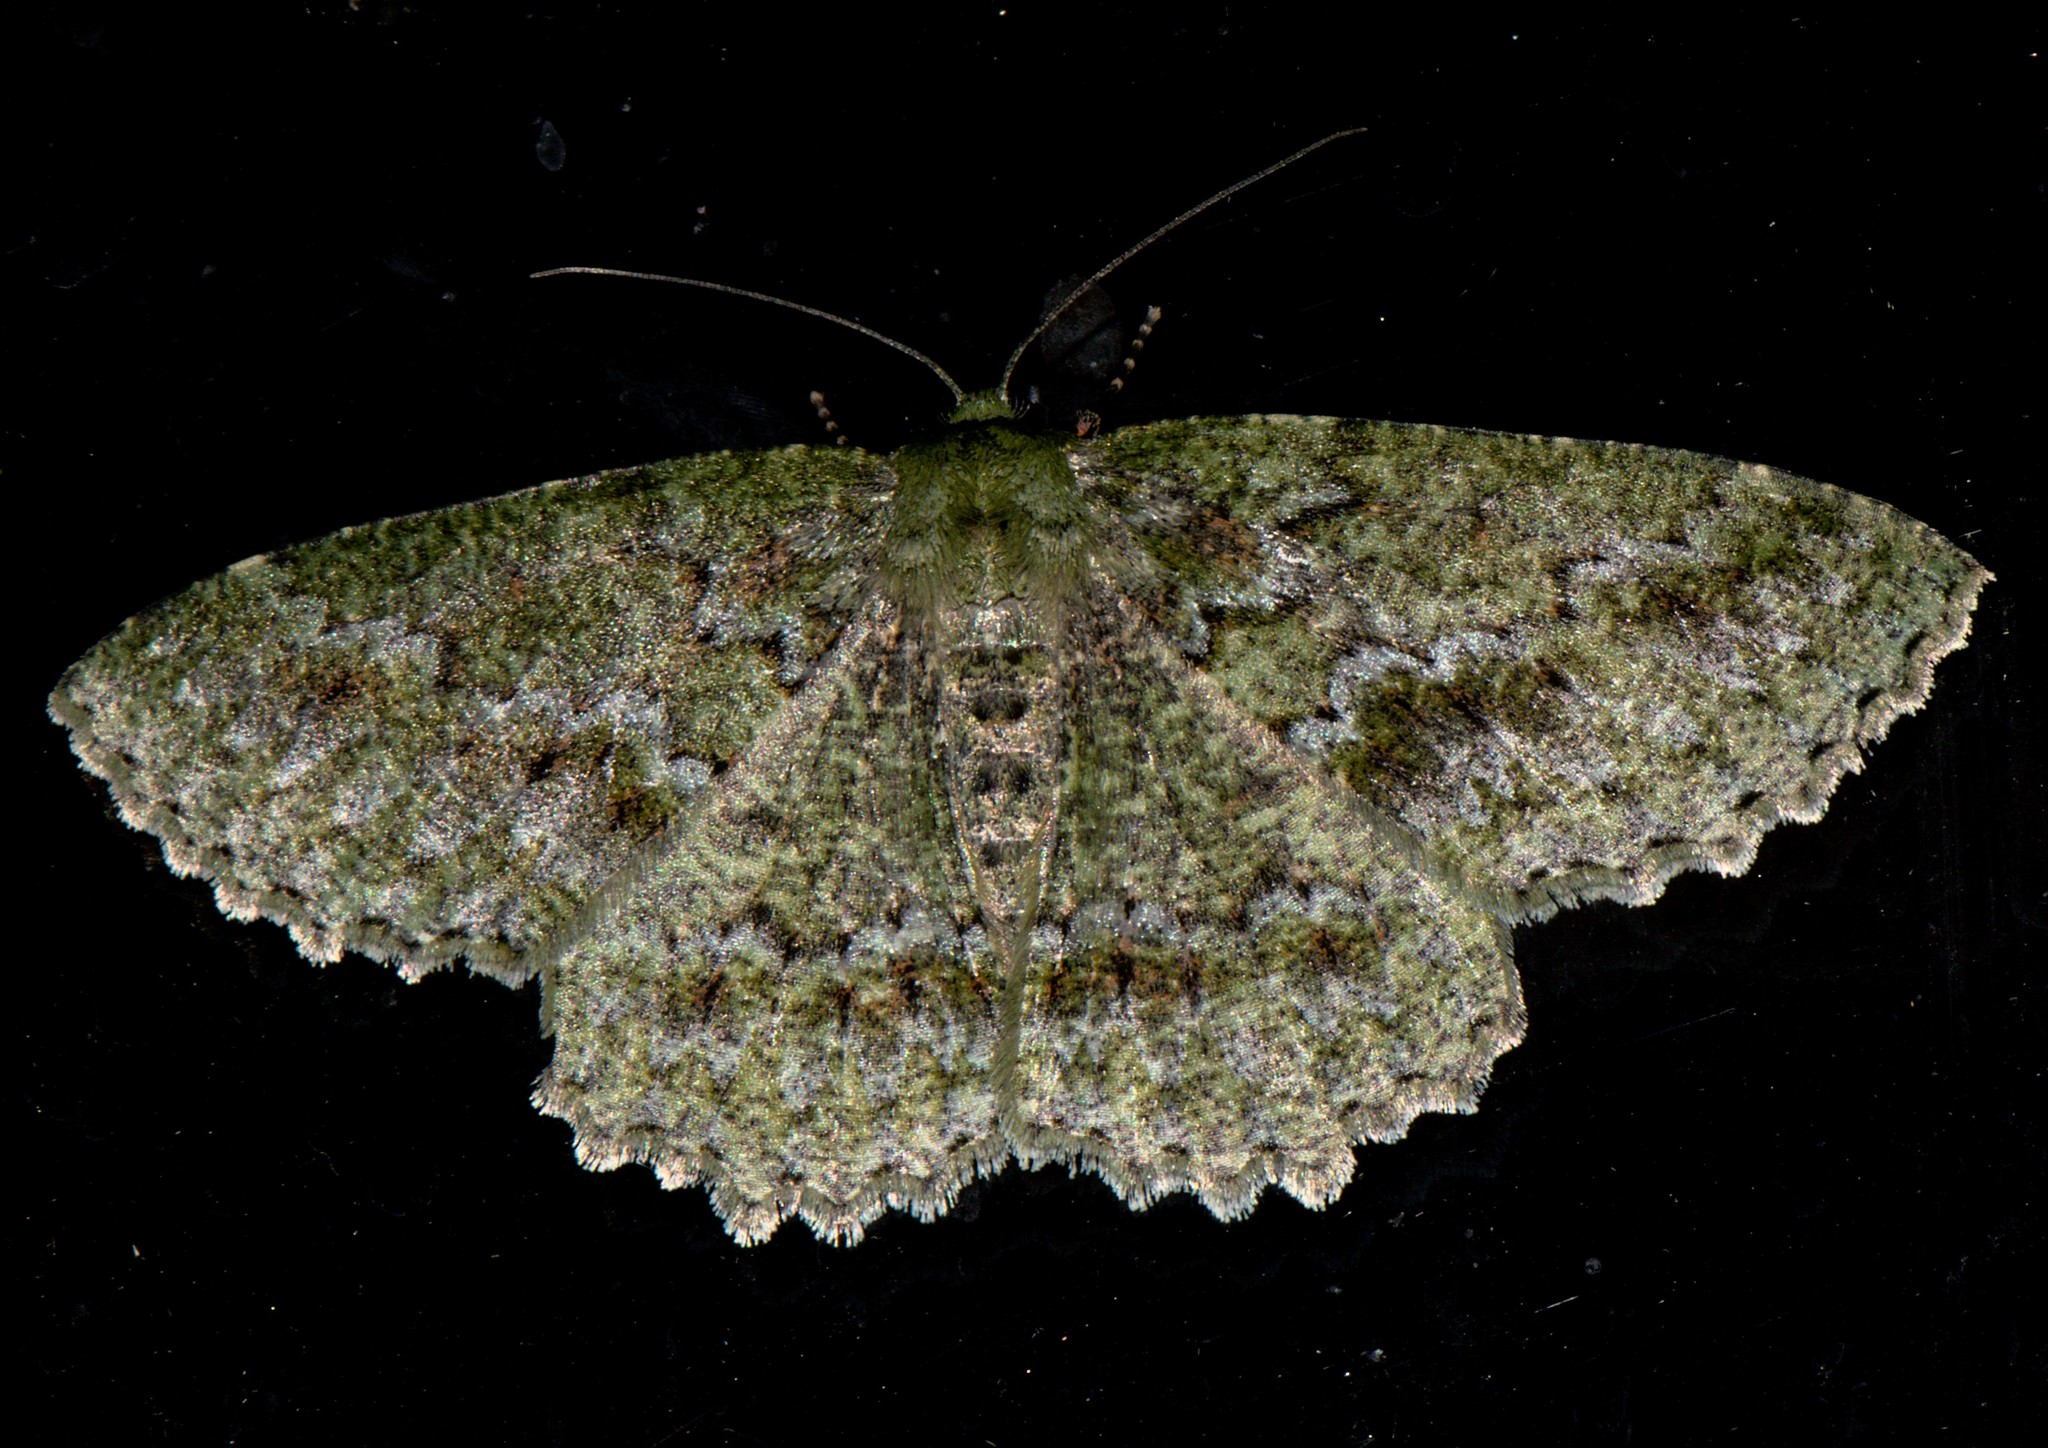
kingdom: Animalia
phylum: Arthropoda
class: Insecta
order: Lepidoptera
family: Geometridae
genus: Herochroma
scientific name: Herochroma usneata
